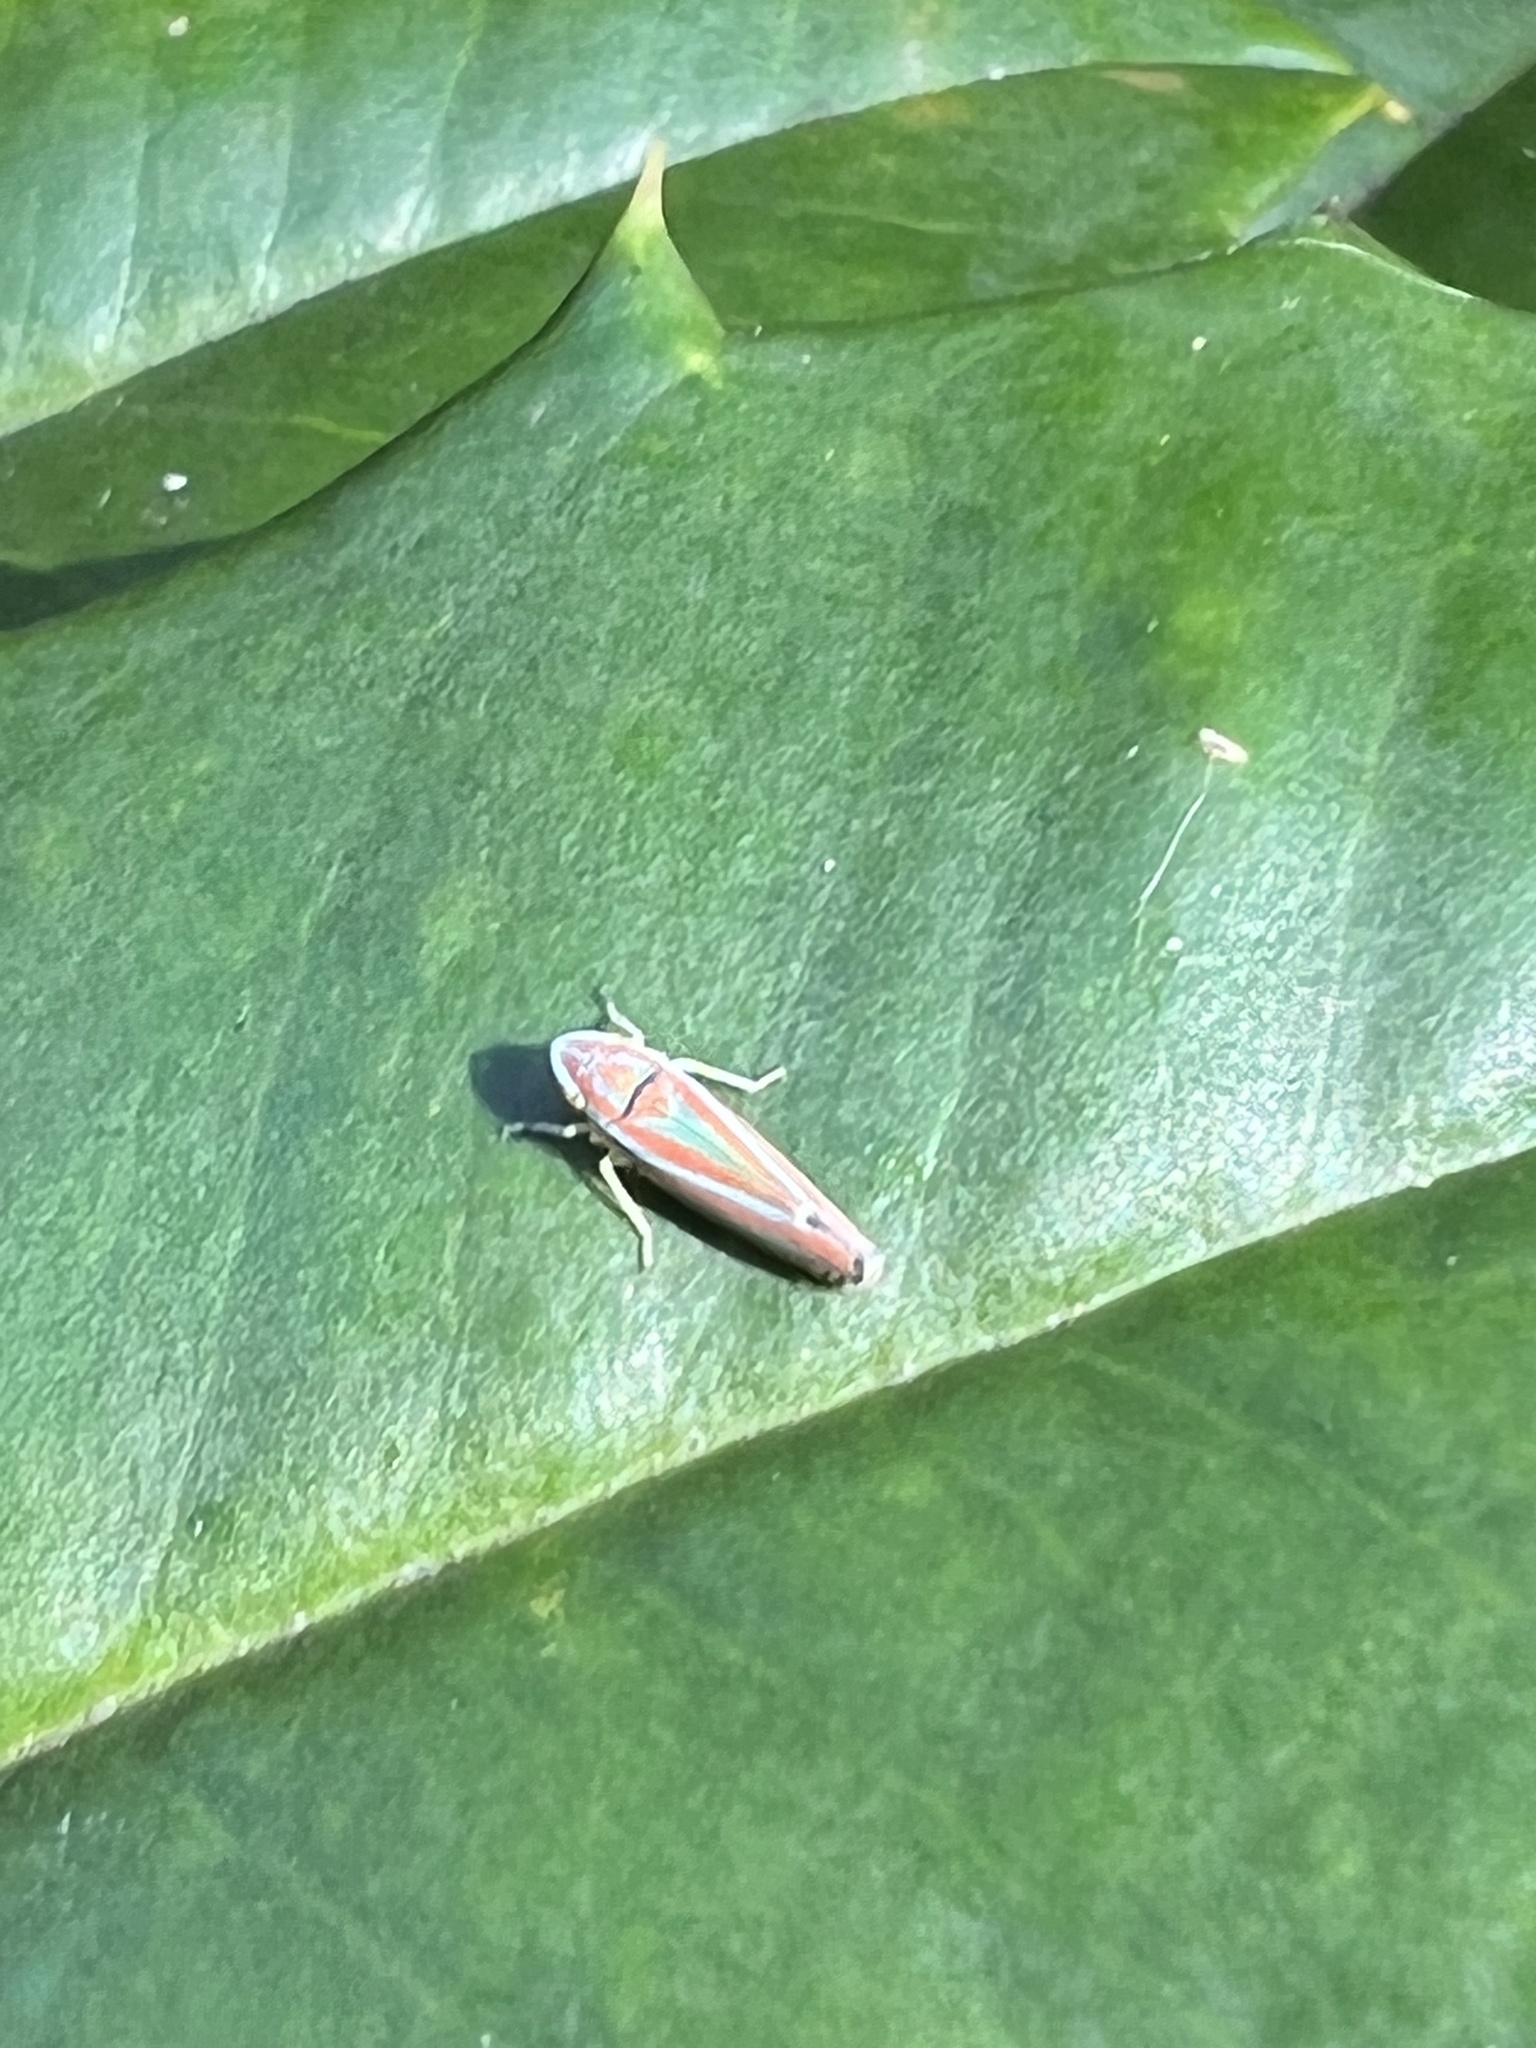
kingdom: Animalia
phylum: Arthropoda
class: Insecta
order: Hemiptera
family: Cicadellidae
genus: Graphocephala
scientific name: Graphocephala versuta
